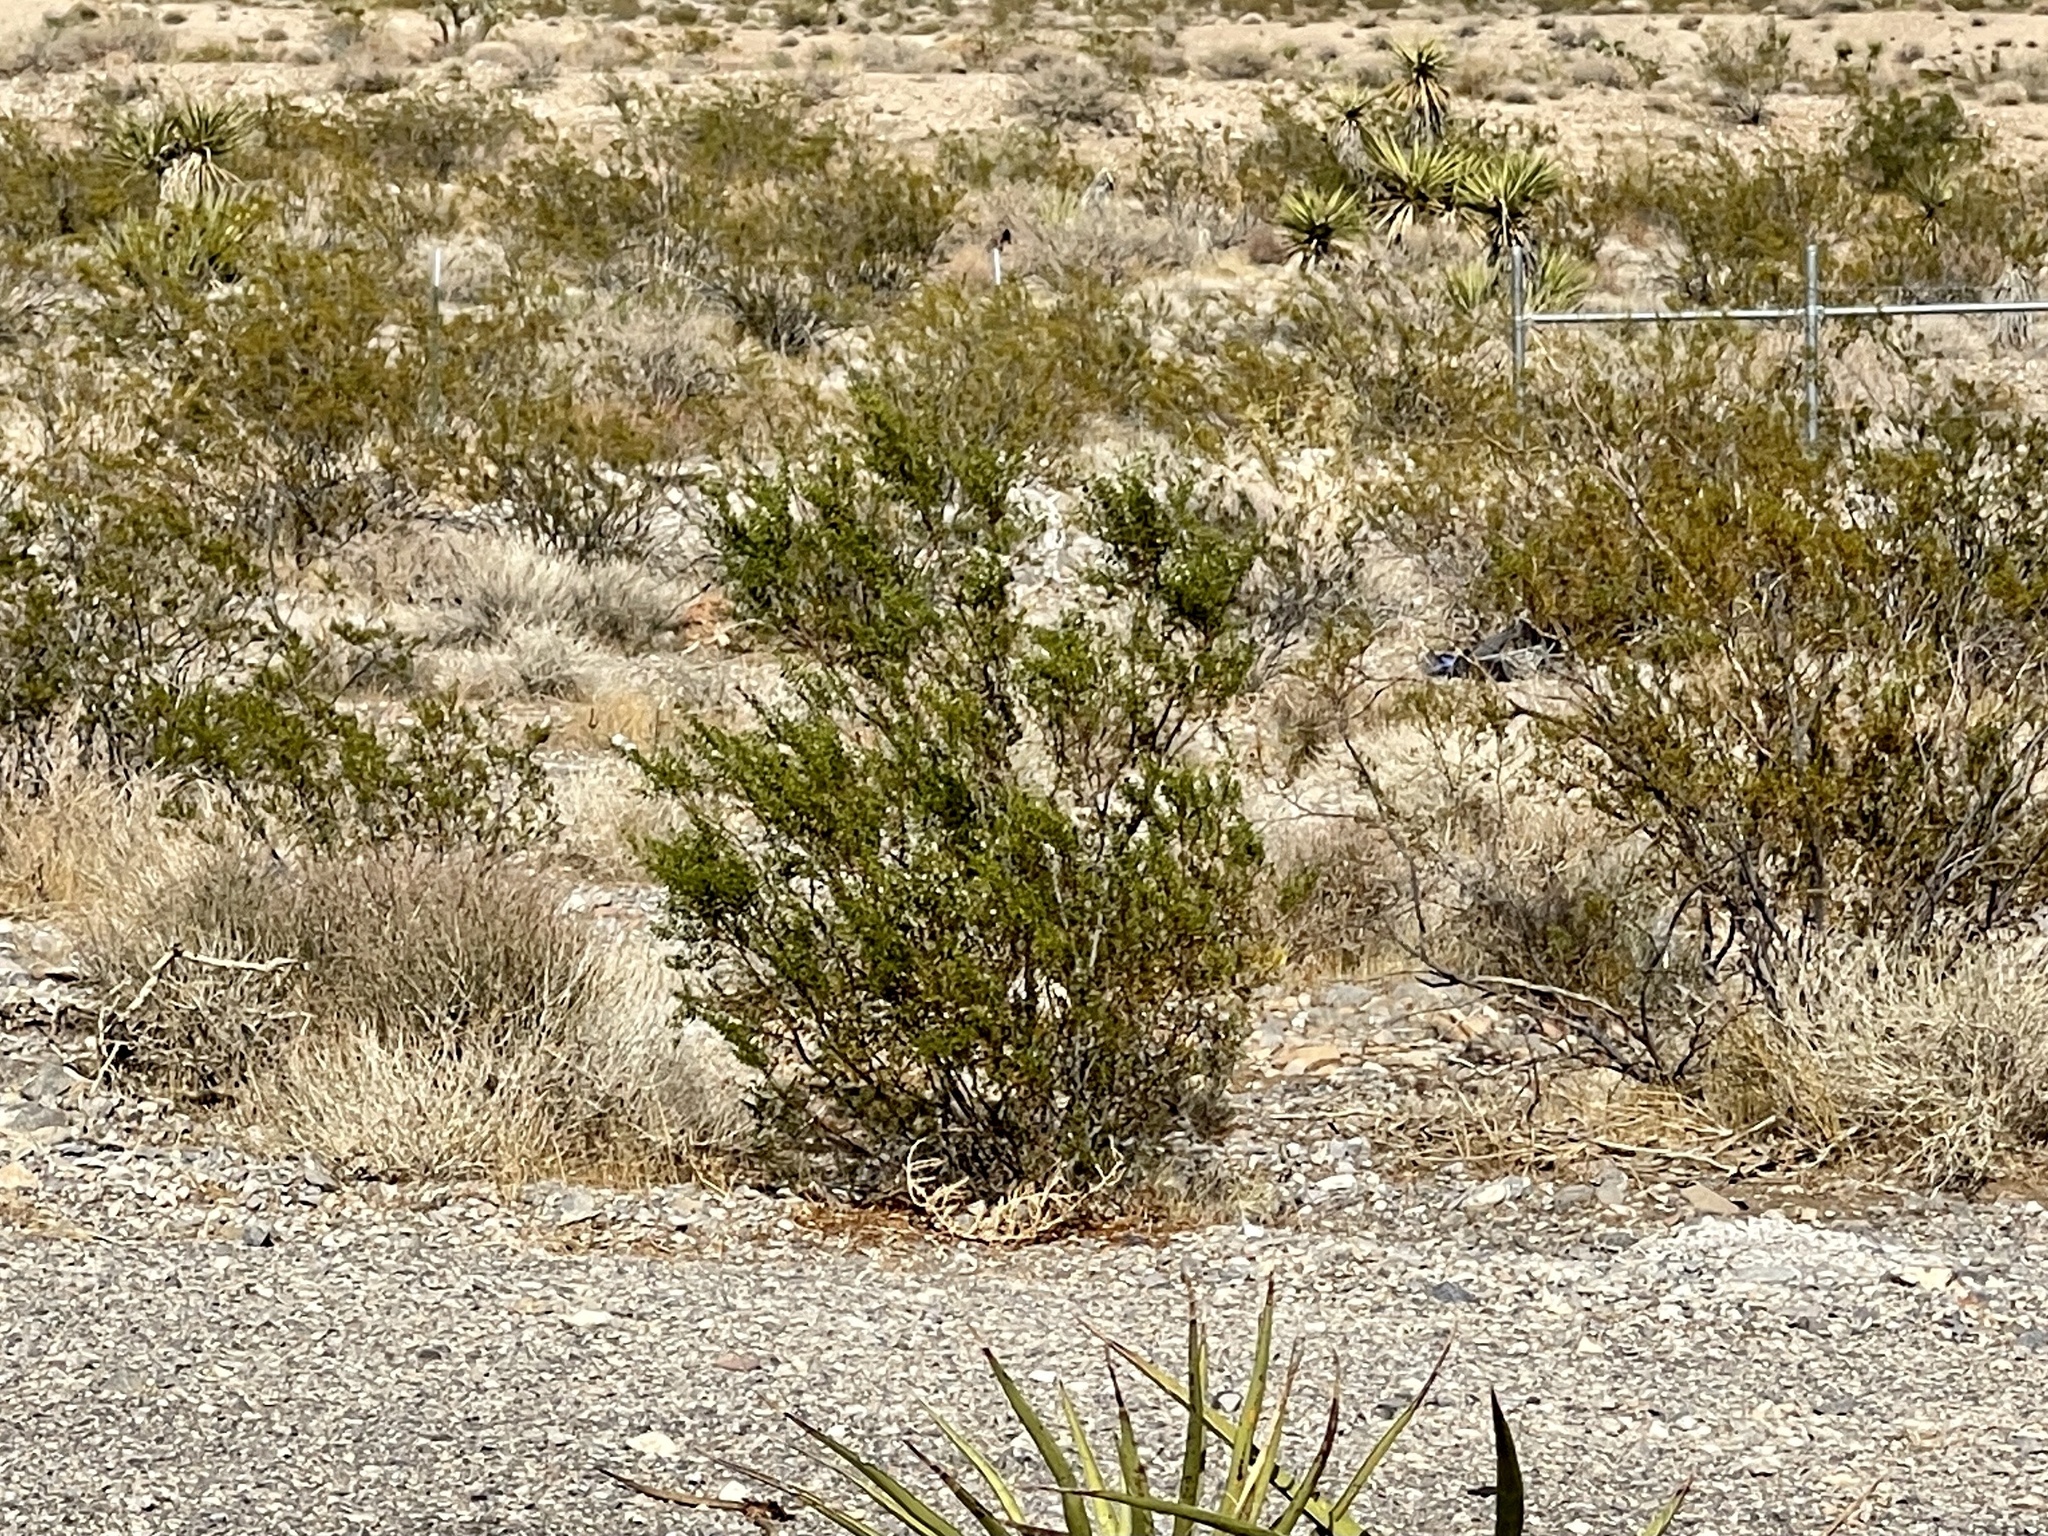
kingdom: Plantae
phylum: Tracheophyta
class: Magnoliopsida
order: Zygophyllales
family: Zygophyllaceae
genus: Larrea
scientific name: Larrea tridentata
